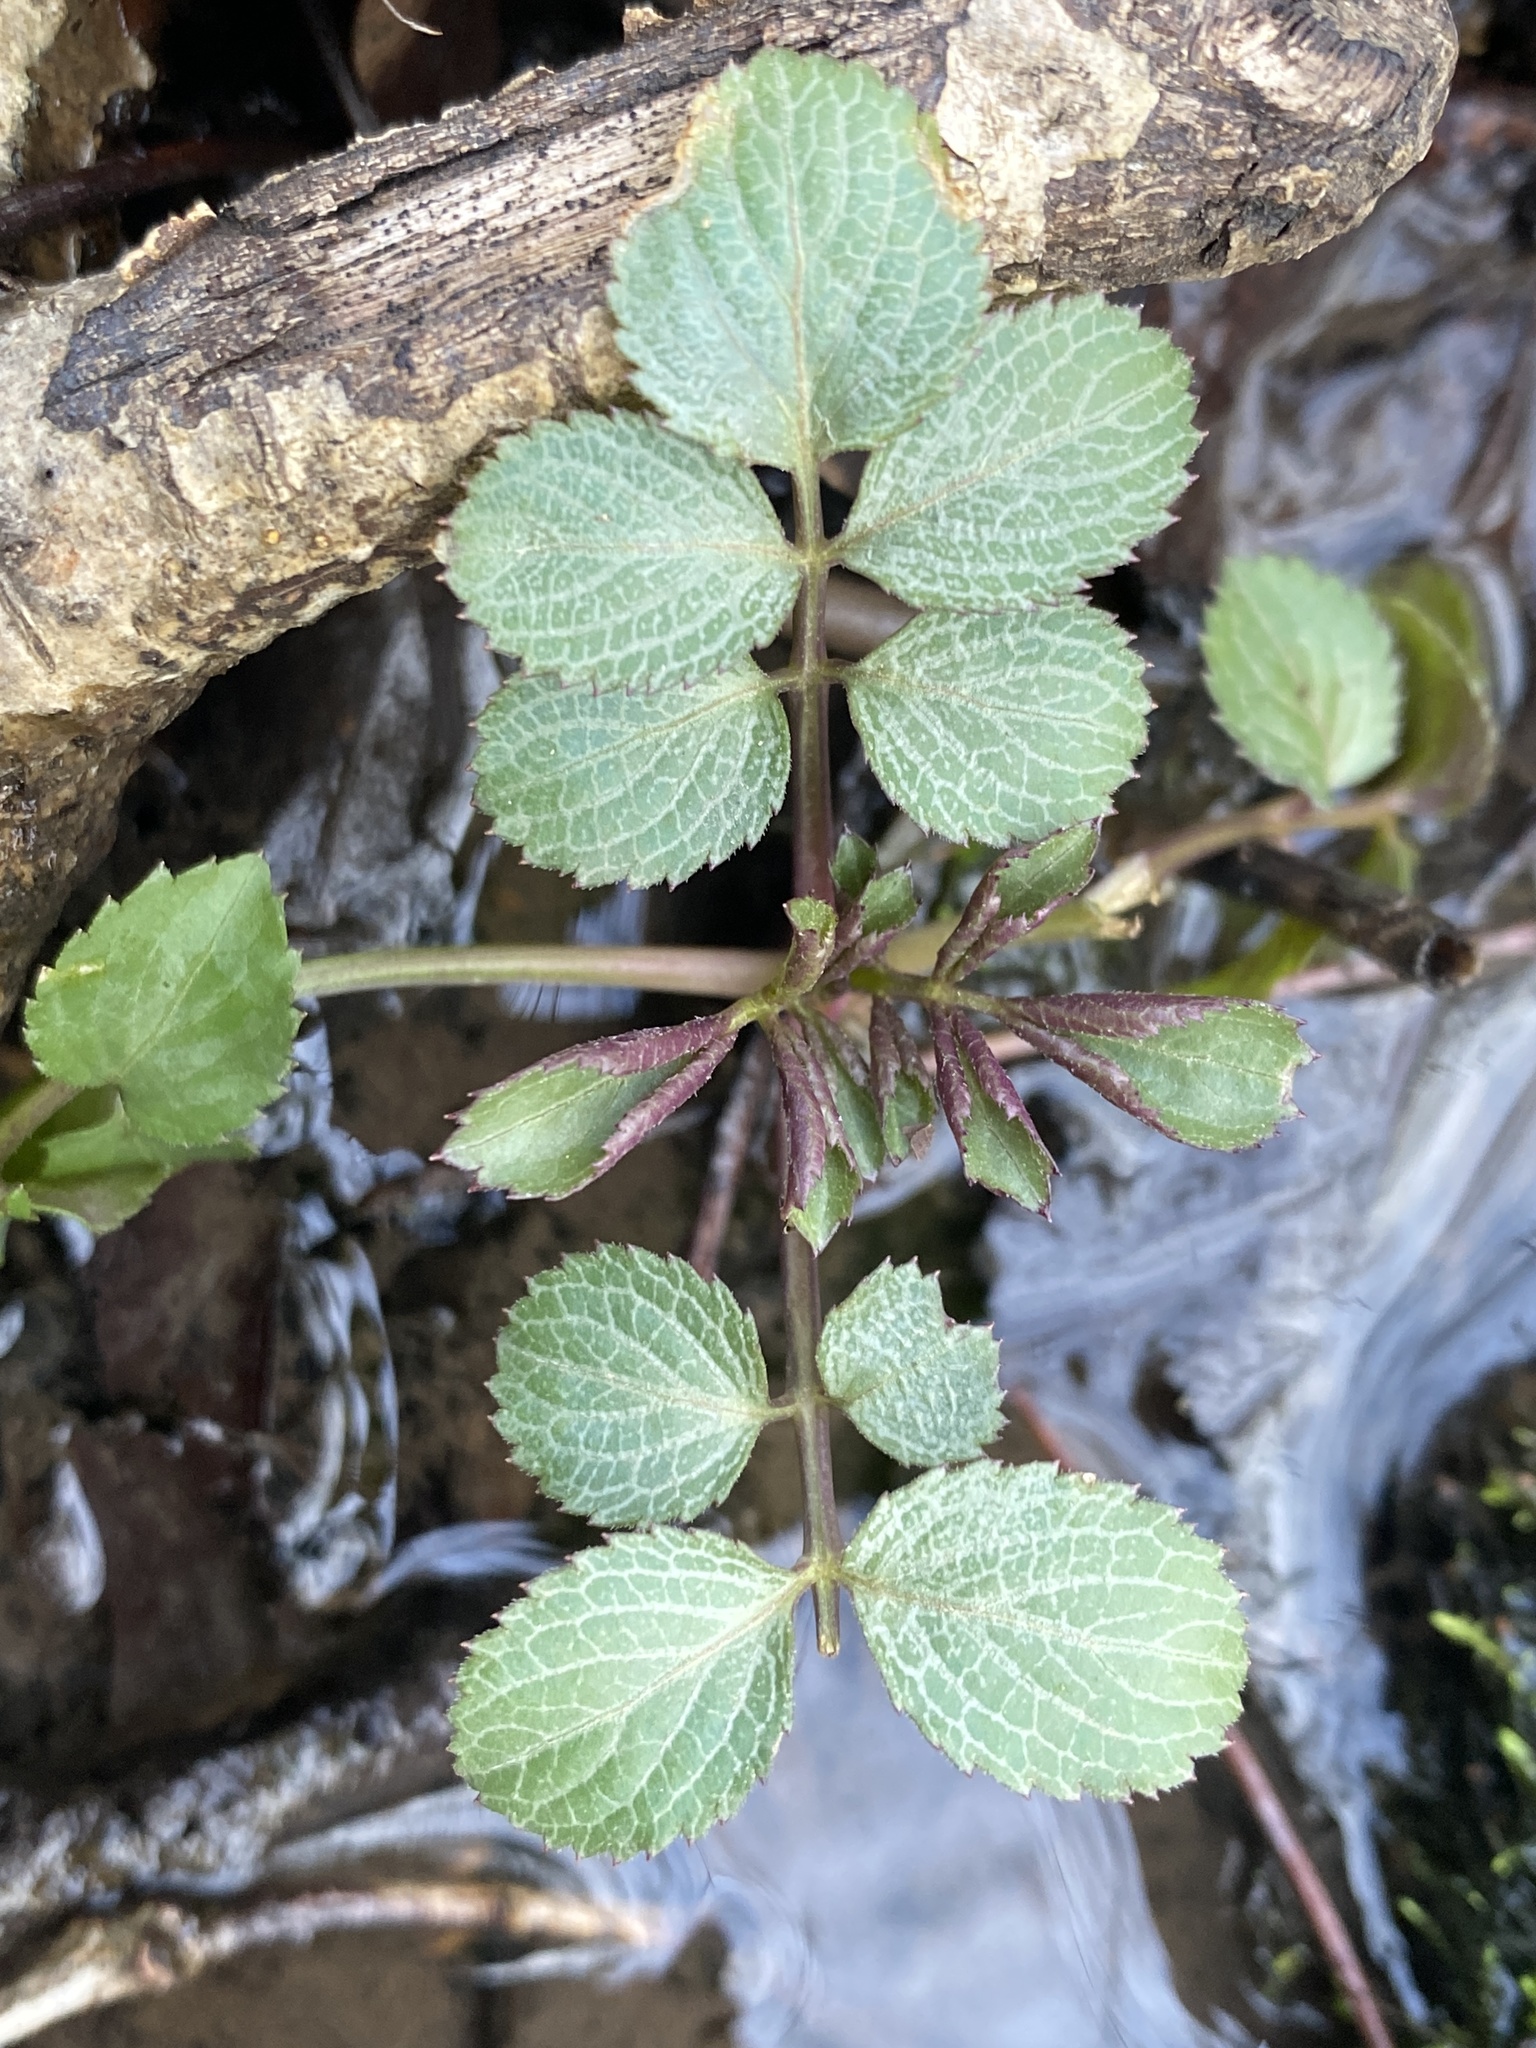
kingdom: Plantae
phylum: Tracheophyta
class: Magnoliopsida
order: Dipsacales
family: Viburnaceae
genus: Sambucus
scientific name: Sambucus canadensis
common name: American elder
